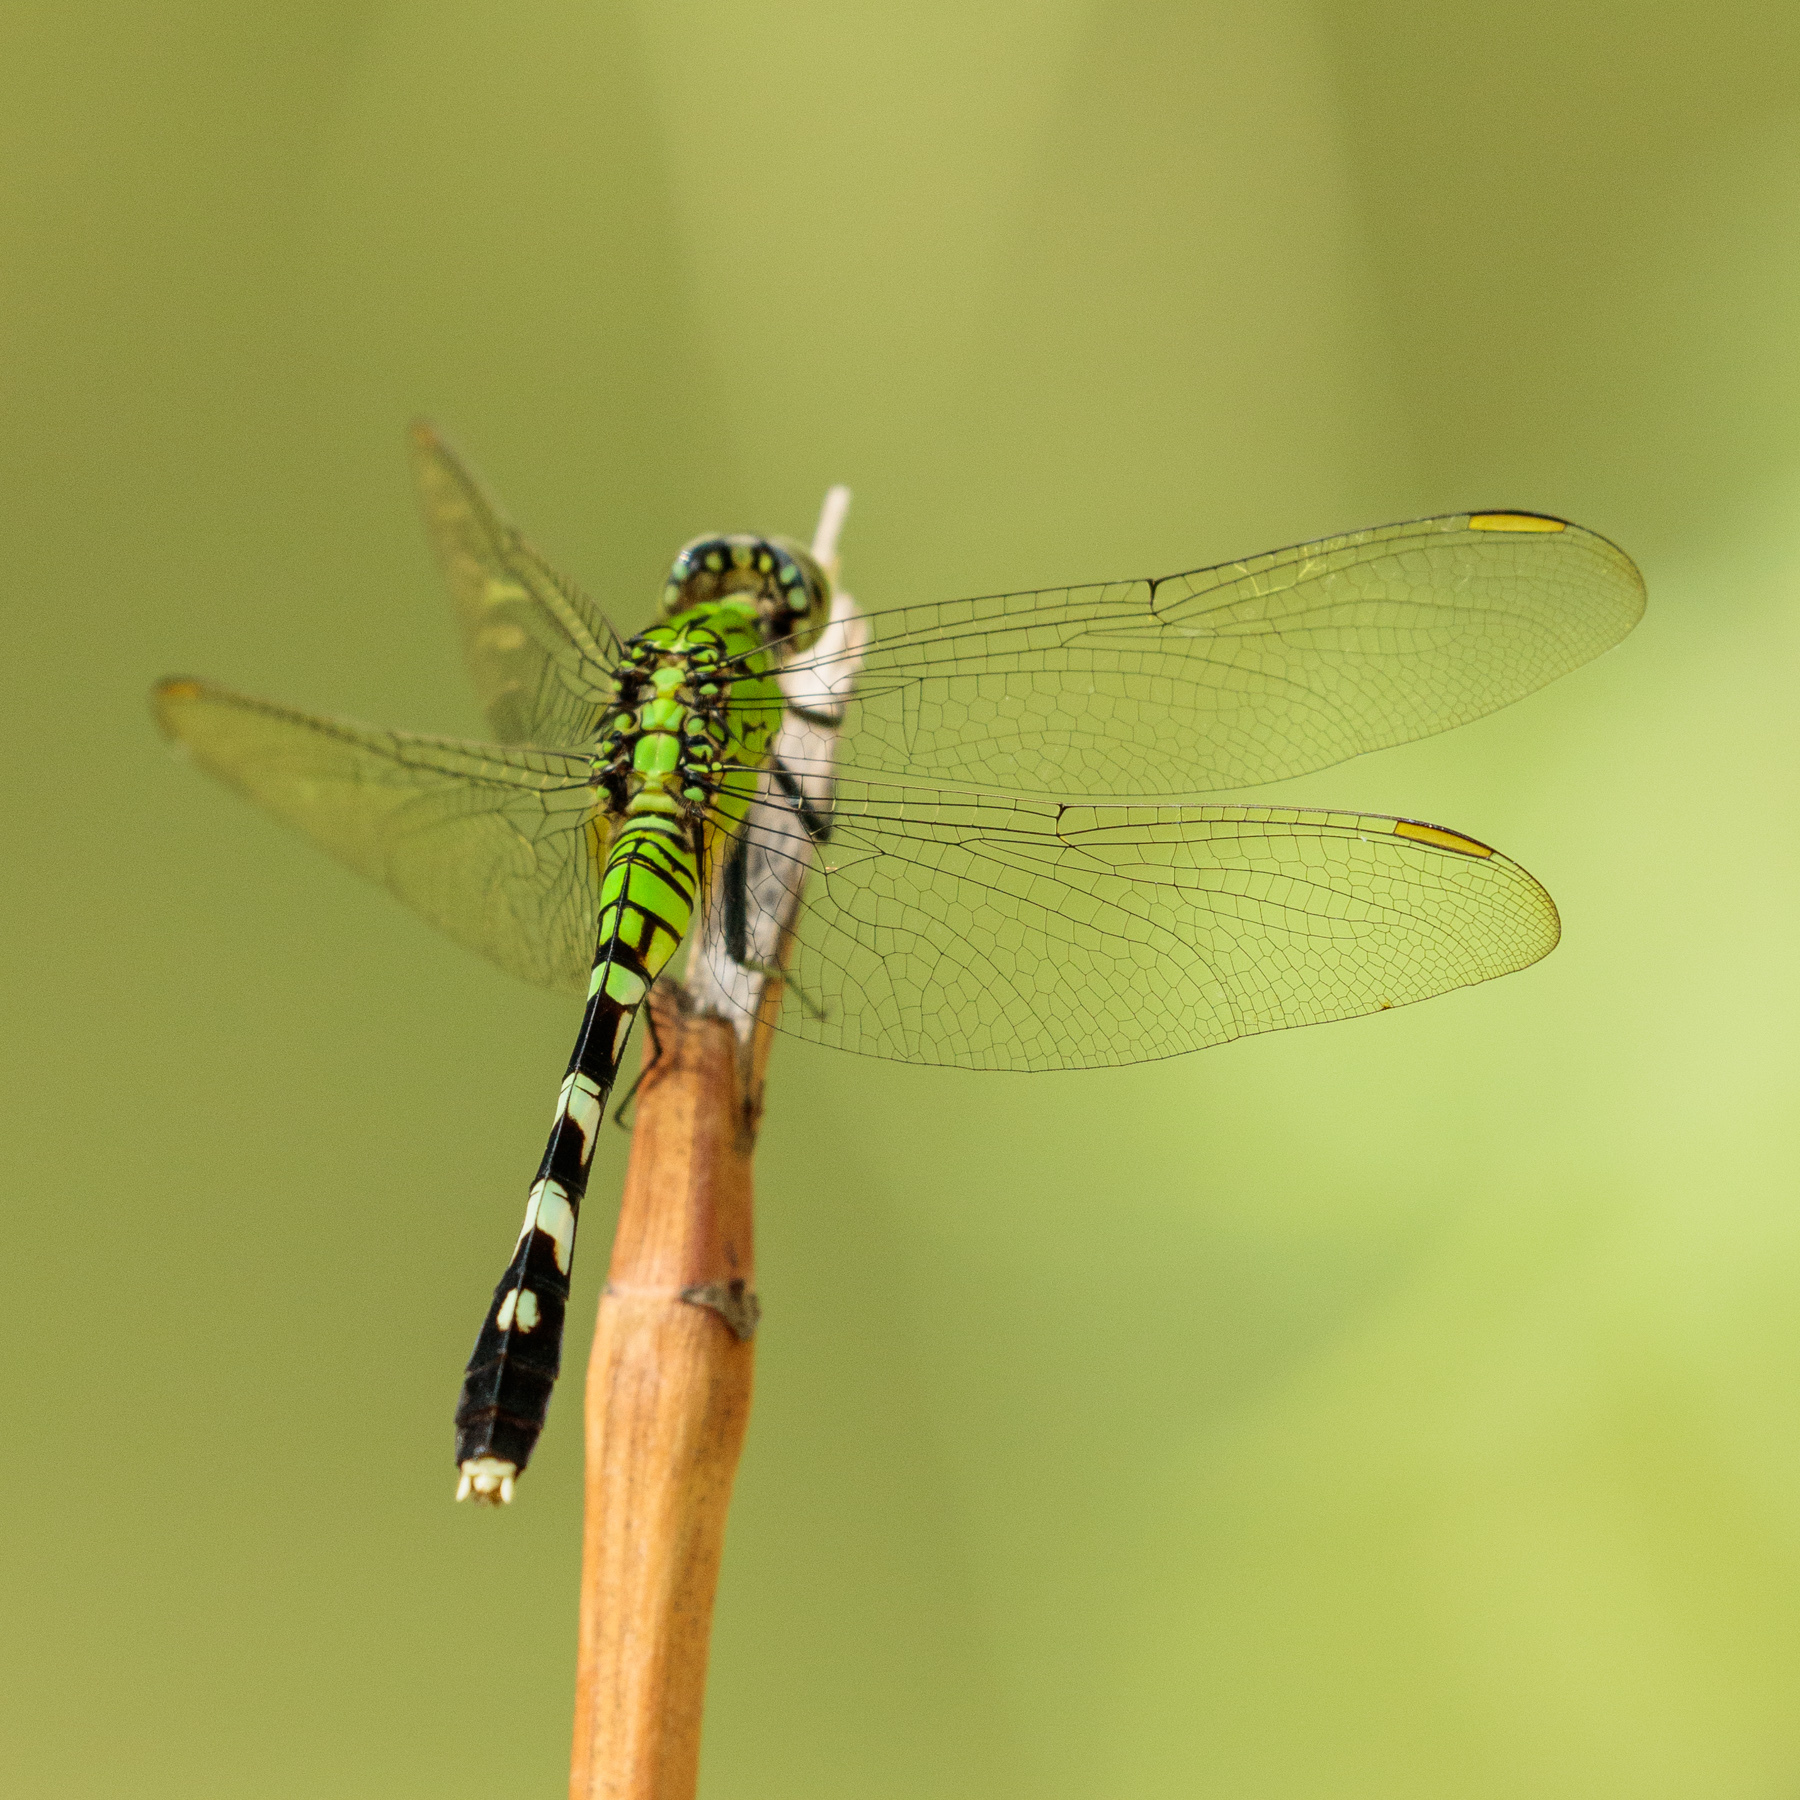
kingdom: Animalia
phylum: Arthropoda
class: Insecta
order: Odonata
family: Libellulidae
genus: Erythemis
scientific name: Erythemis simplicicollis
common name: Eastern pondhawk
